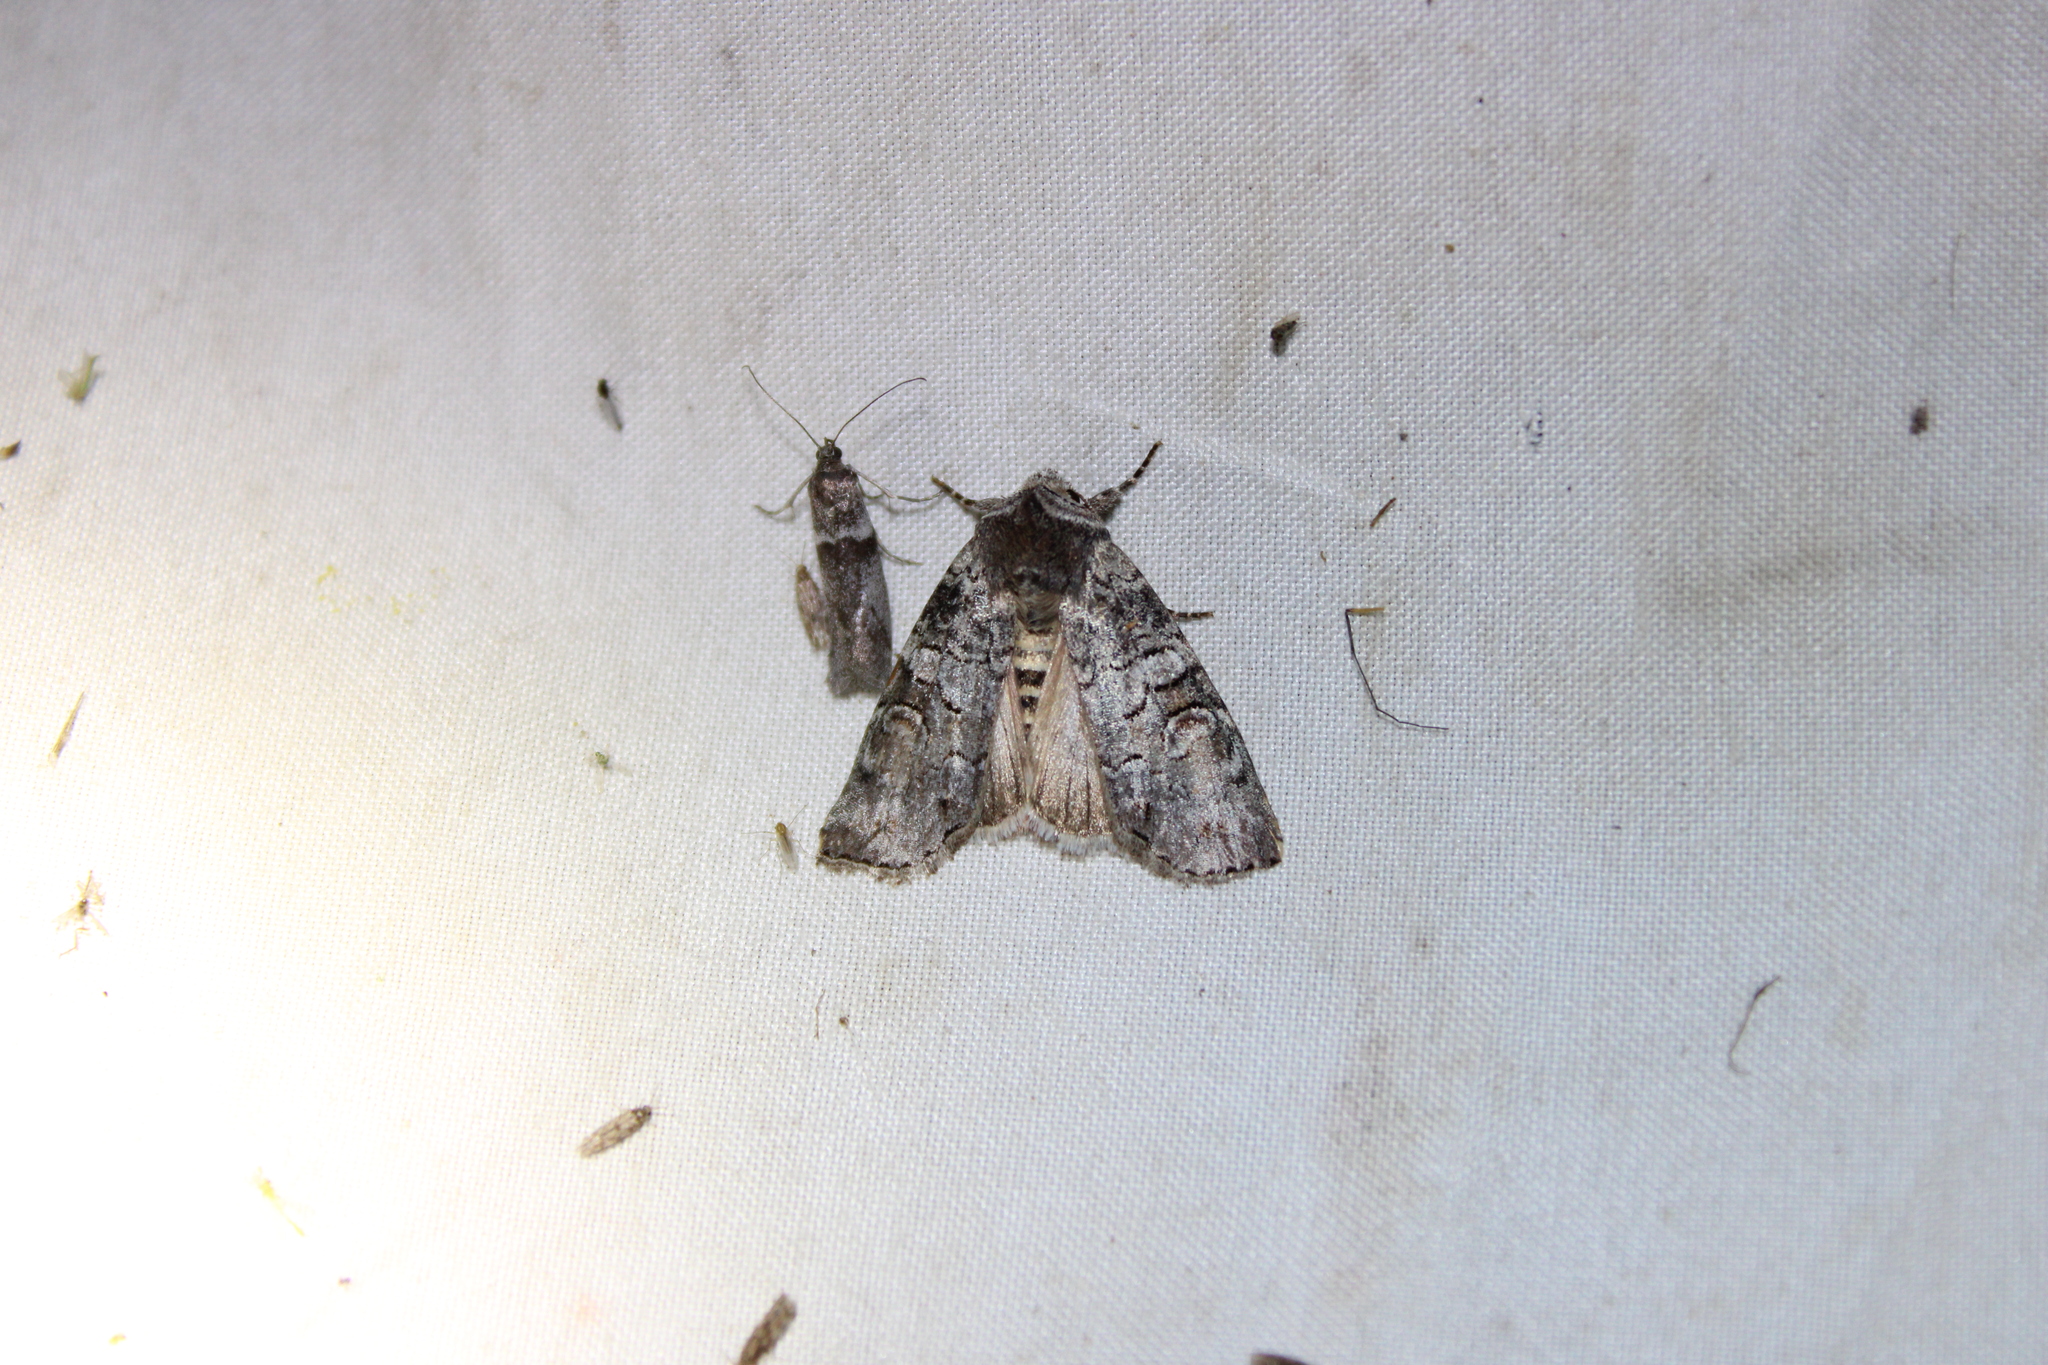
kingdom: Animalia
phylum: Arthropoda
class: Insecta
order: Lepidoptera
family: Noctuidae
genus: Egira
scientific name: Egira alternans
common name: Alternate woodling
